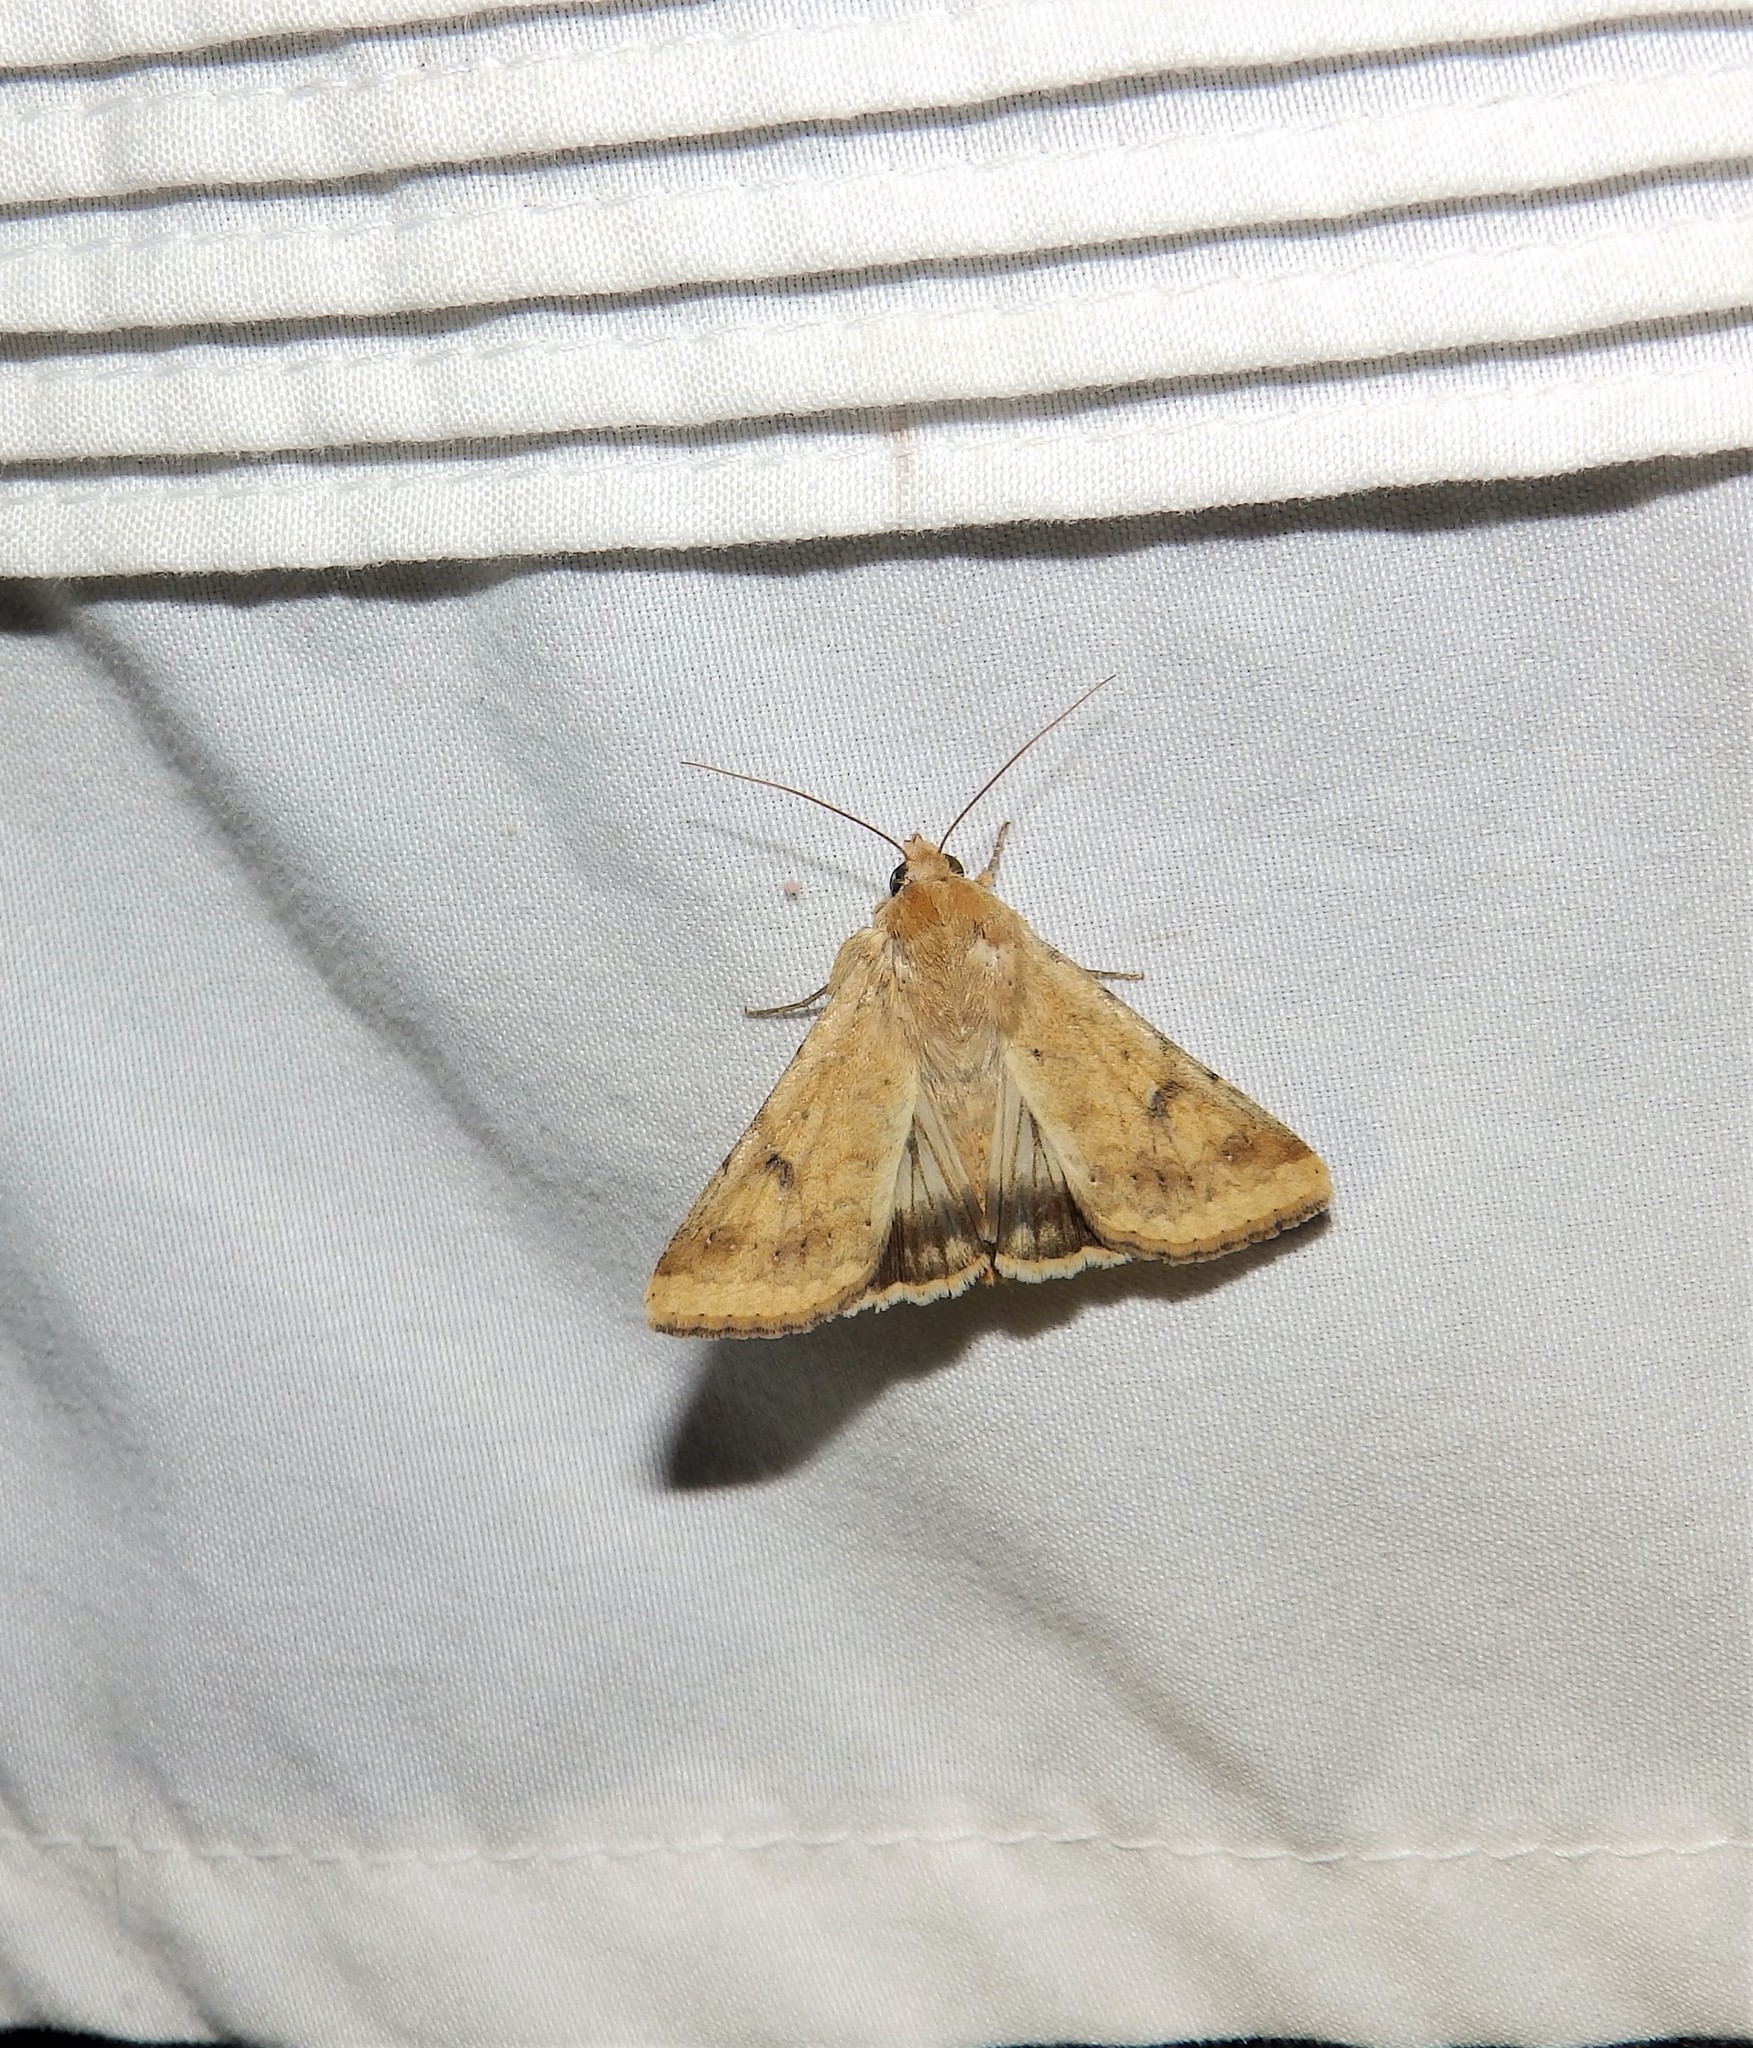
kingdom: Animalia
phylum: Arthropoda
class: Insecta
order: Lepidoptera
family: Noctuidae
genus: Helicoverpa
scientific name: Helicoverpa zea
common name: Bollworm
